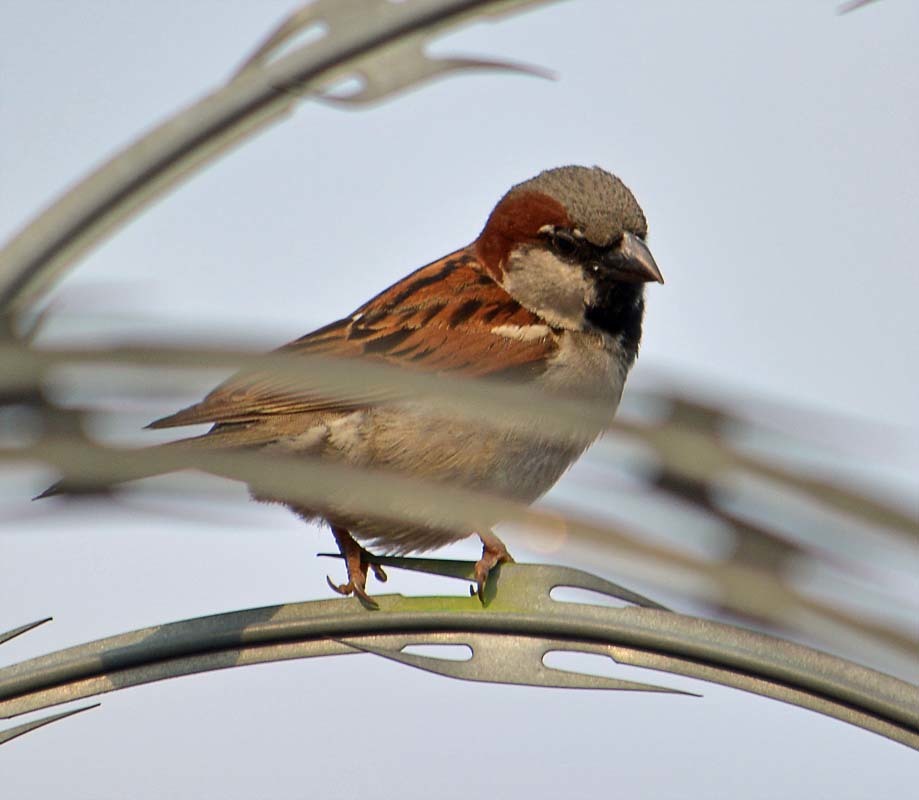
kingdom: Animalia
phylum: Chordata
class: Aves
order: Passeriformes
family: Passeridae
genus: Passer
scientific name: Passer domesticus
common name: House sparrow
